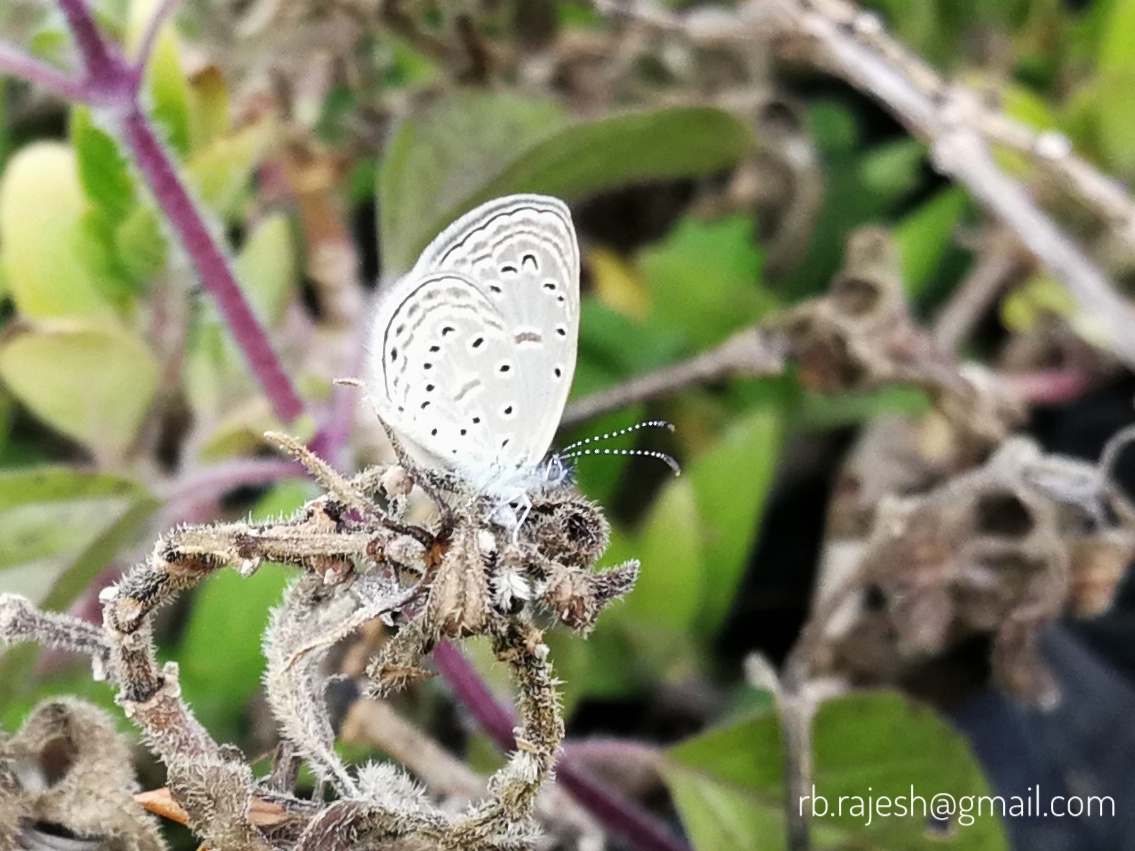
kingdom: Animalia
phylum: Arthropoda
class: Insecta
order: Lepidoptera
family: Lycaenidae
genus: Zizula
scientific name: Zizula hylax
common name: Gaika blue
